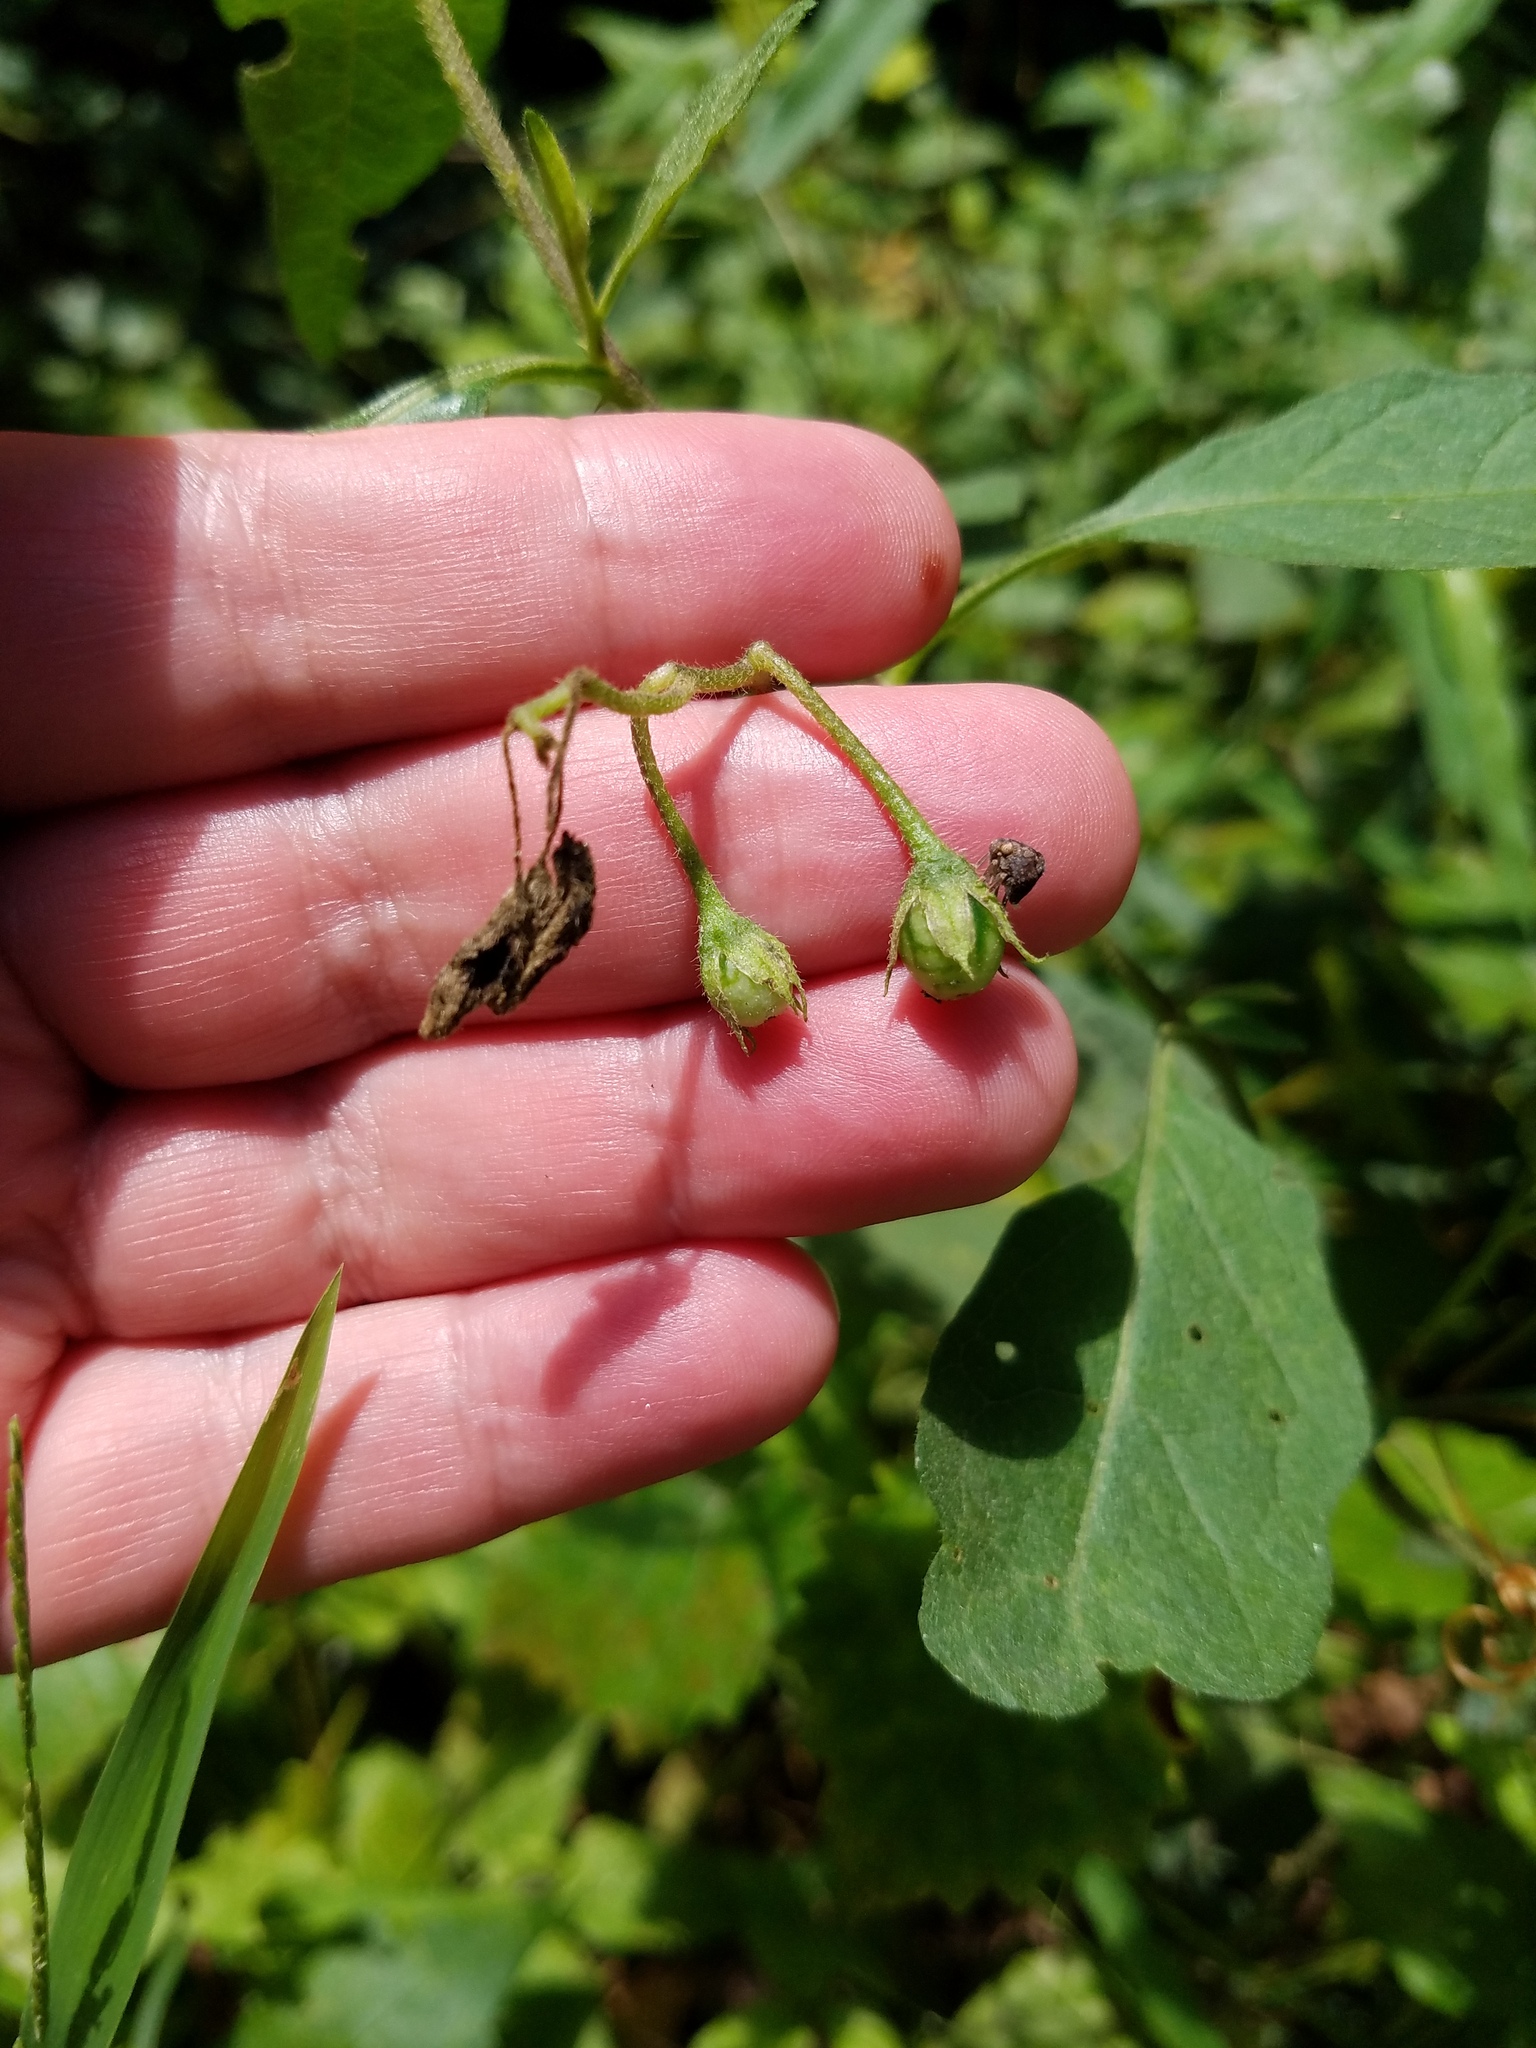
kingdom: Plantae
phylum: Tracheophyta
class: Magnoliopsida
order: Solanales
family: Solanaceae
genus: Solanum
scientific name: Solanum carolinense
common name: Horse-nettle
